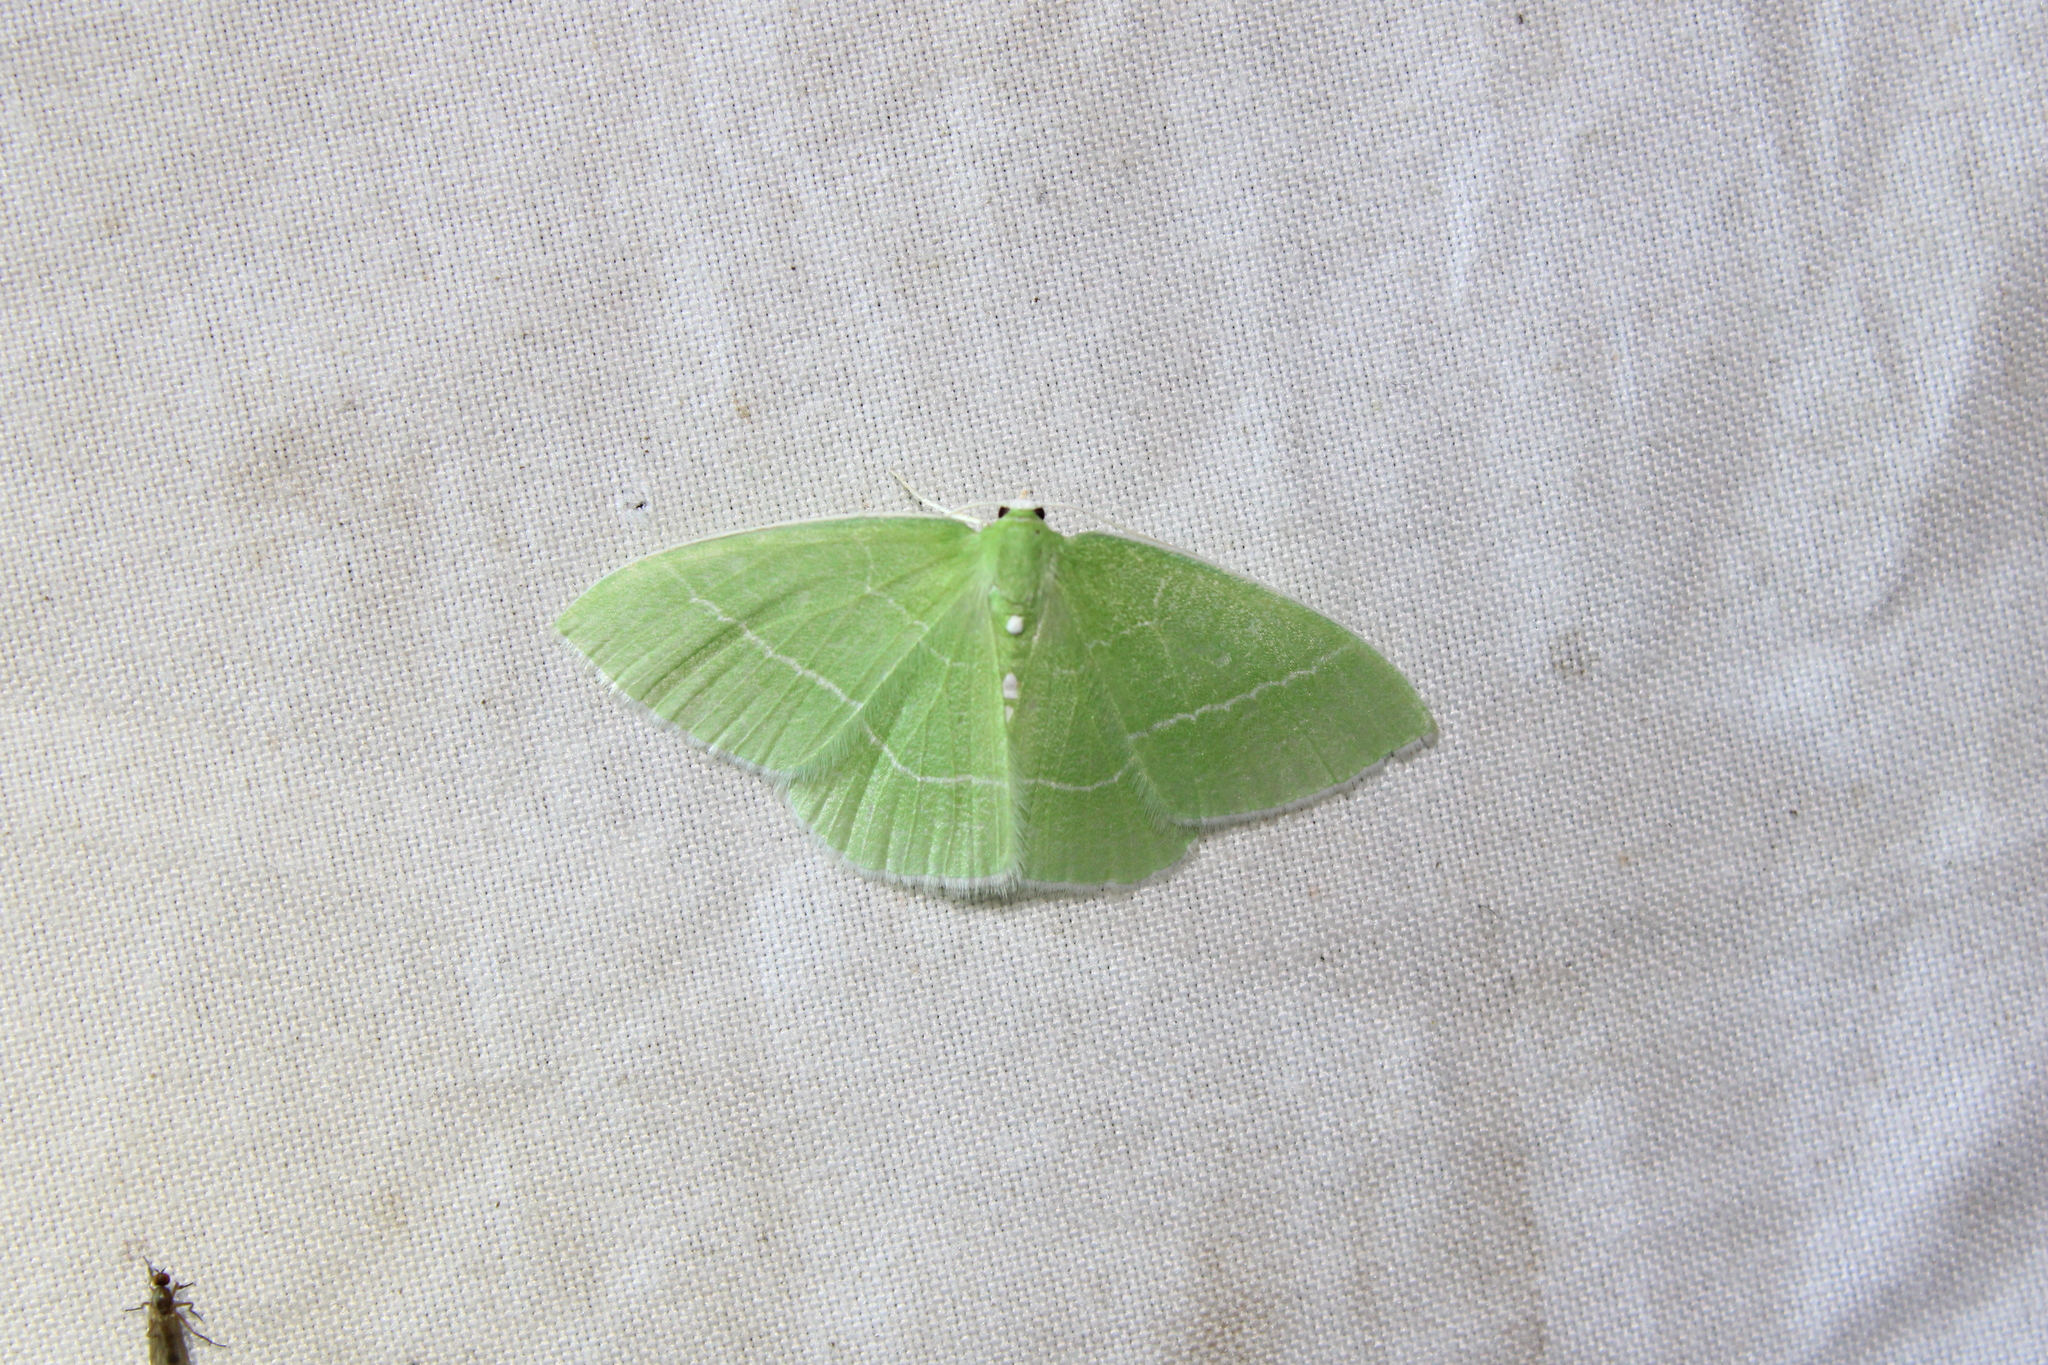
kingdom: Animalia
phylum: Arthropoda
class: Insecta
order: Lepidoptera
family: Geometridae
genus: Nemoria
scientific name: Nemoria mimosaria
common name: White-fringed emerald
